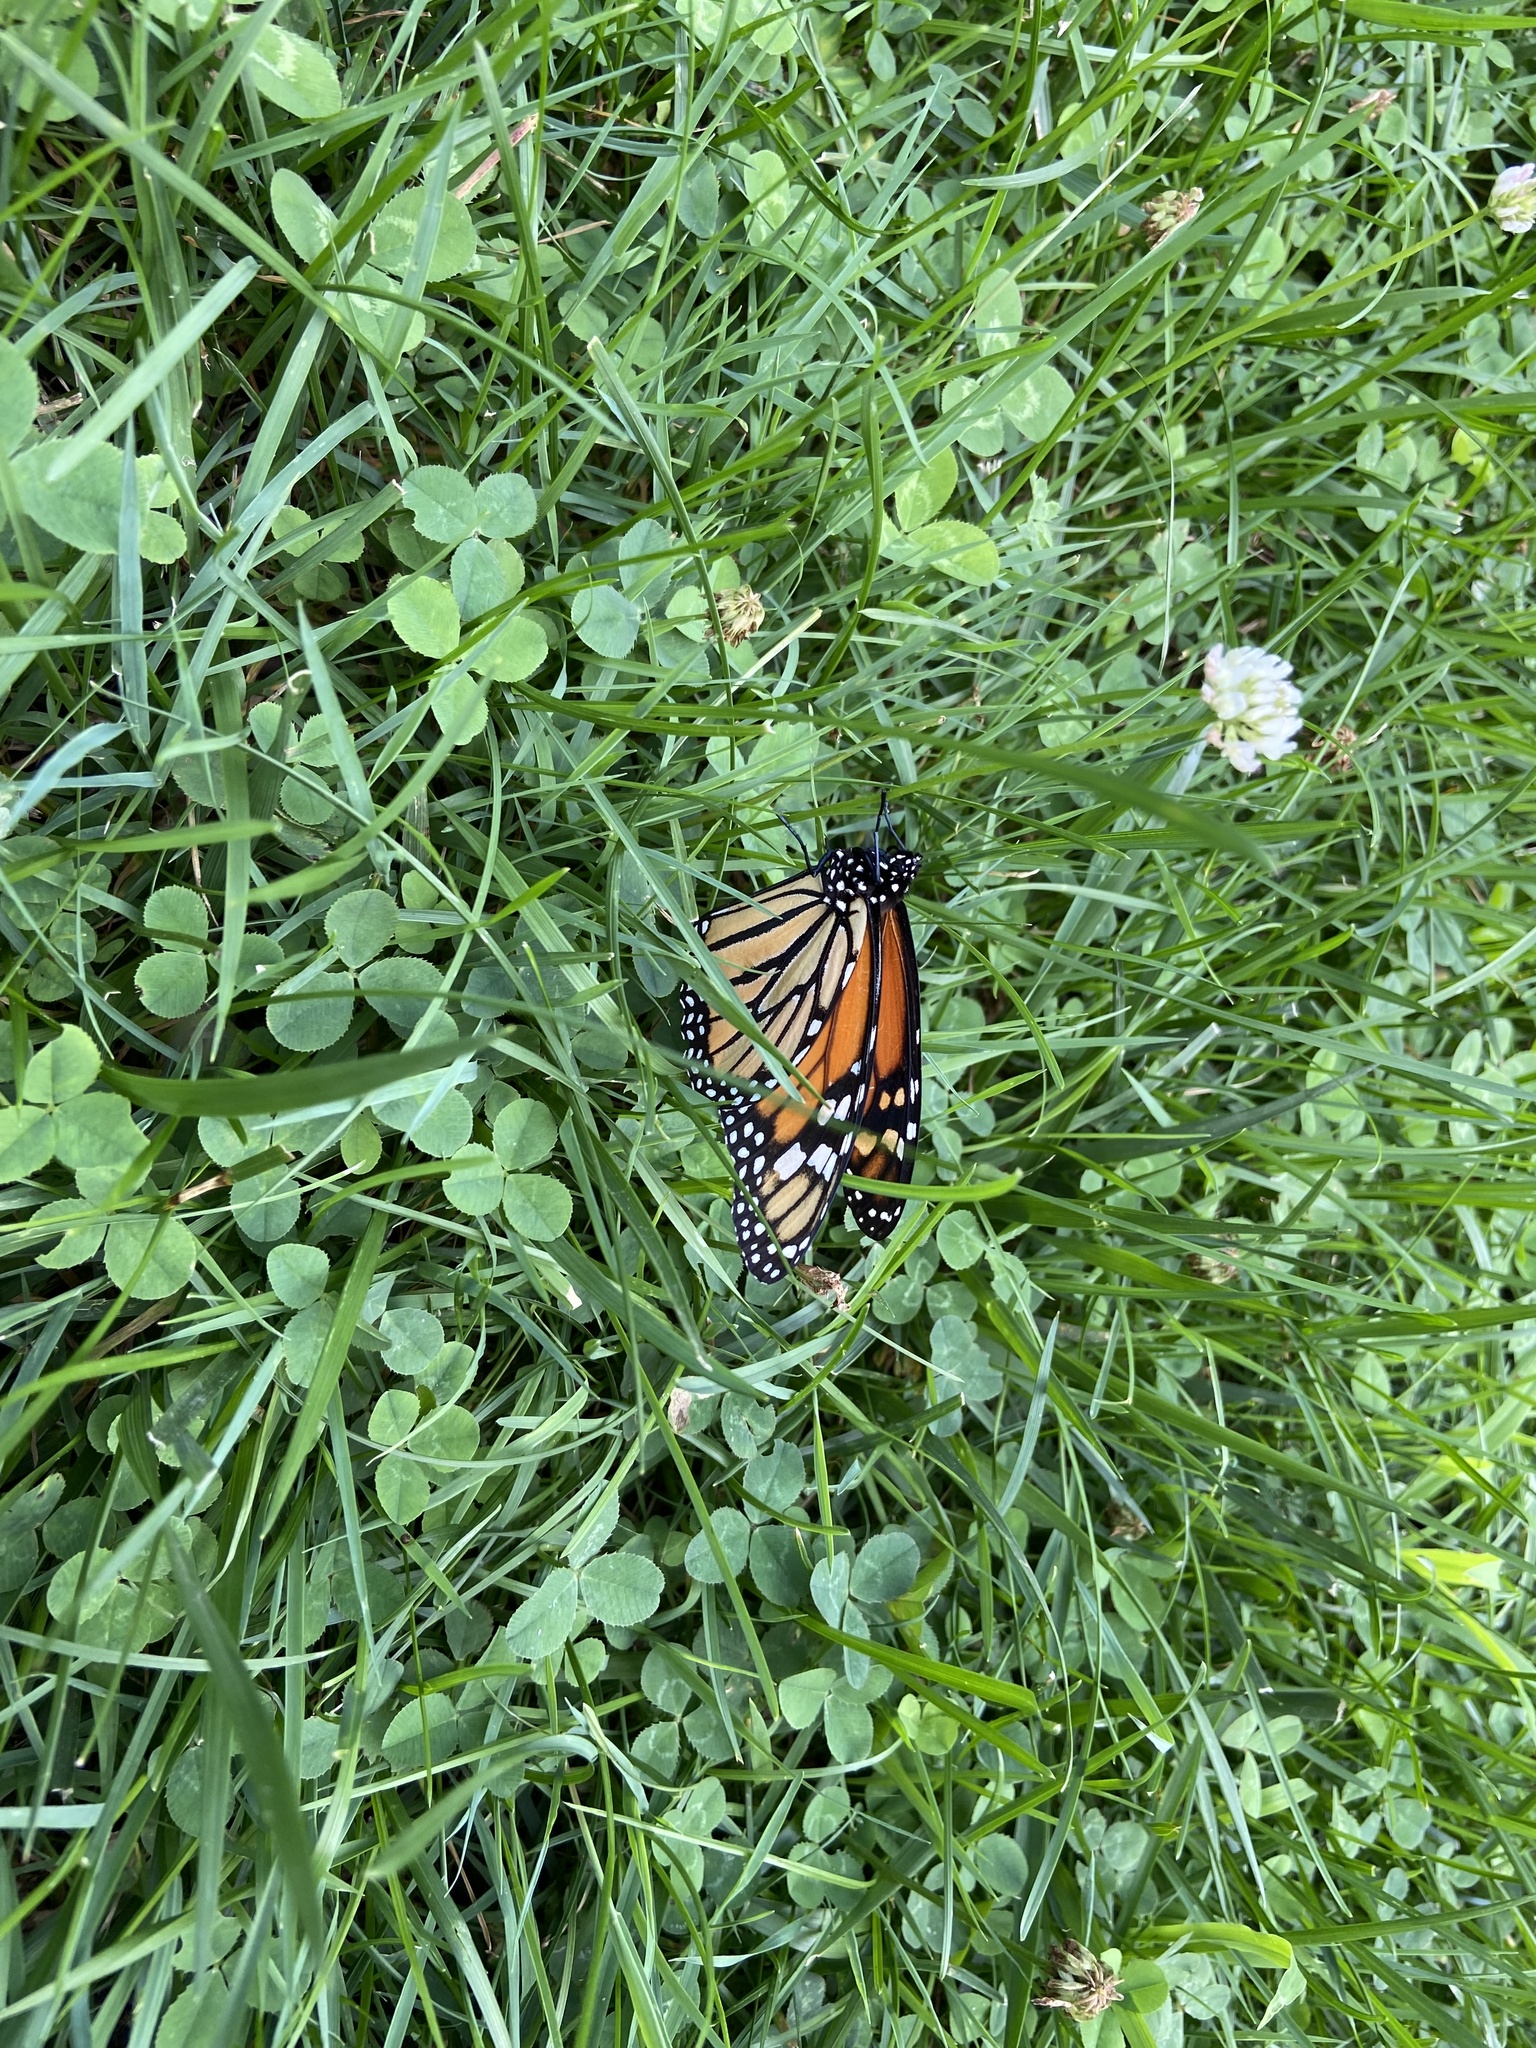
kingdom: Animalia
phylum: Arthropoda
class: Insecta
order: Lepidoptera
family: Nymphalidae
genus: Danaus
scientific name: Danaus plexippus
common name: Monarch
